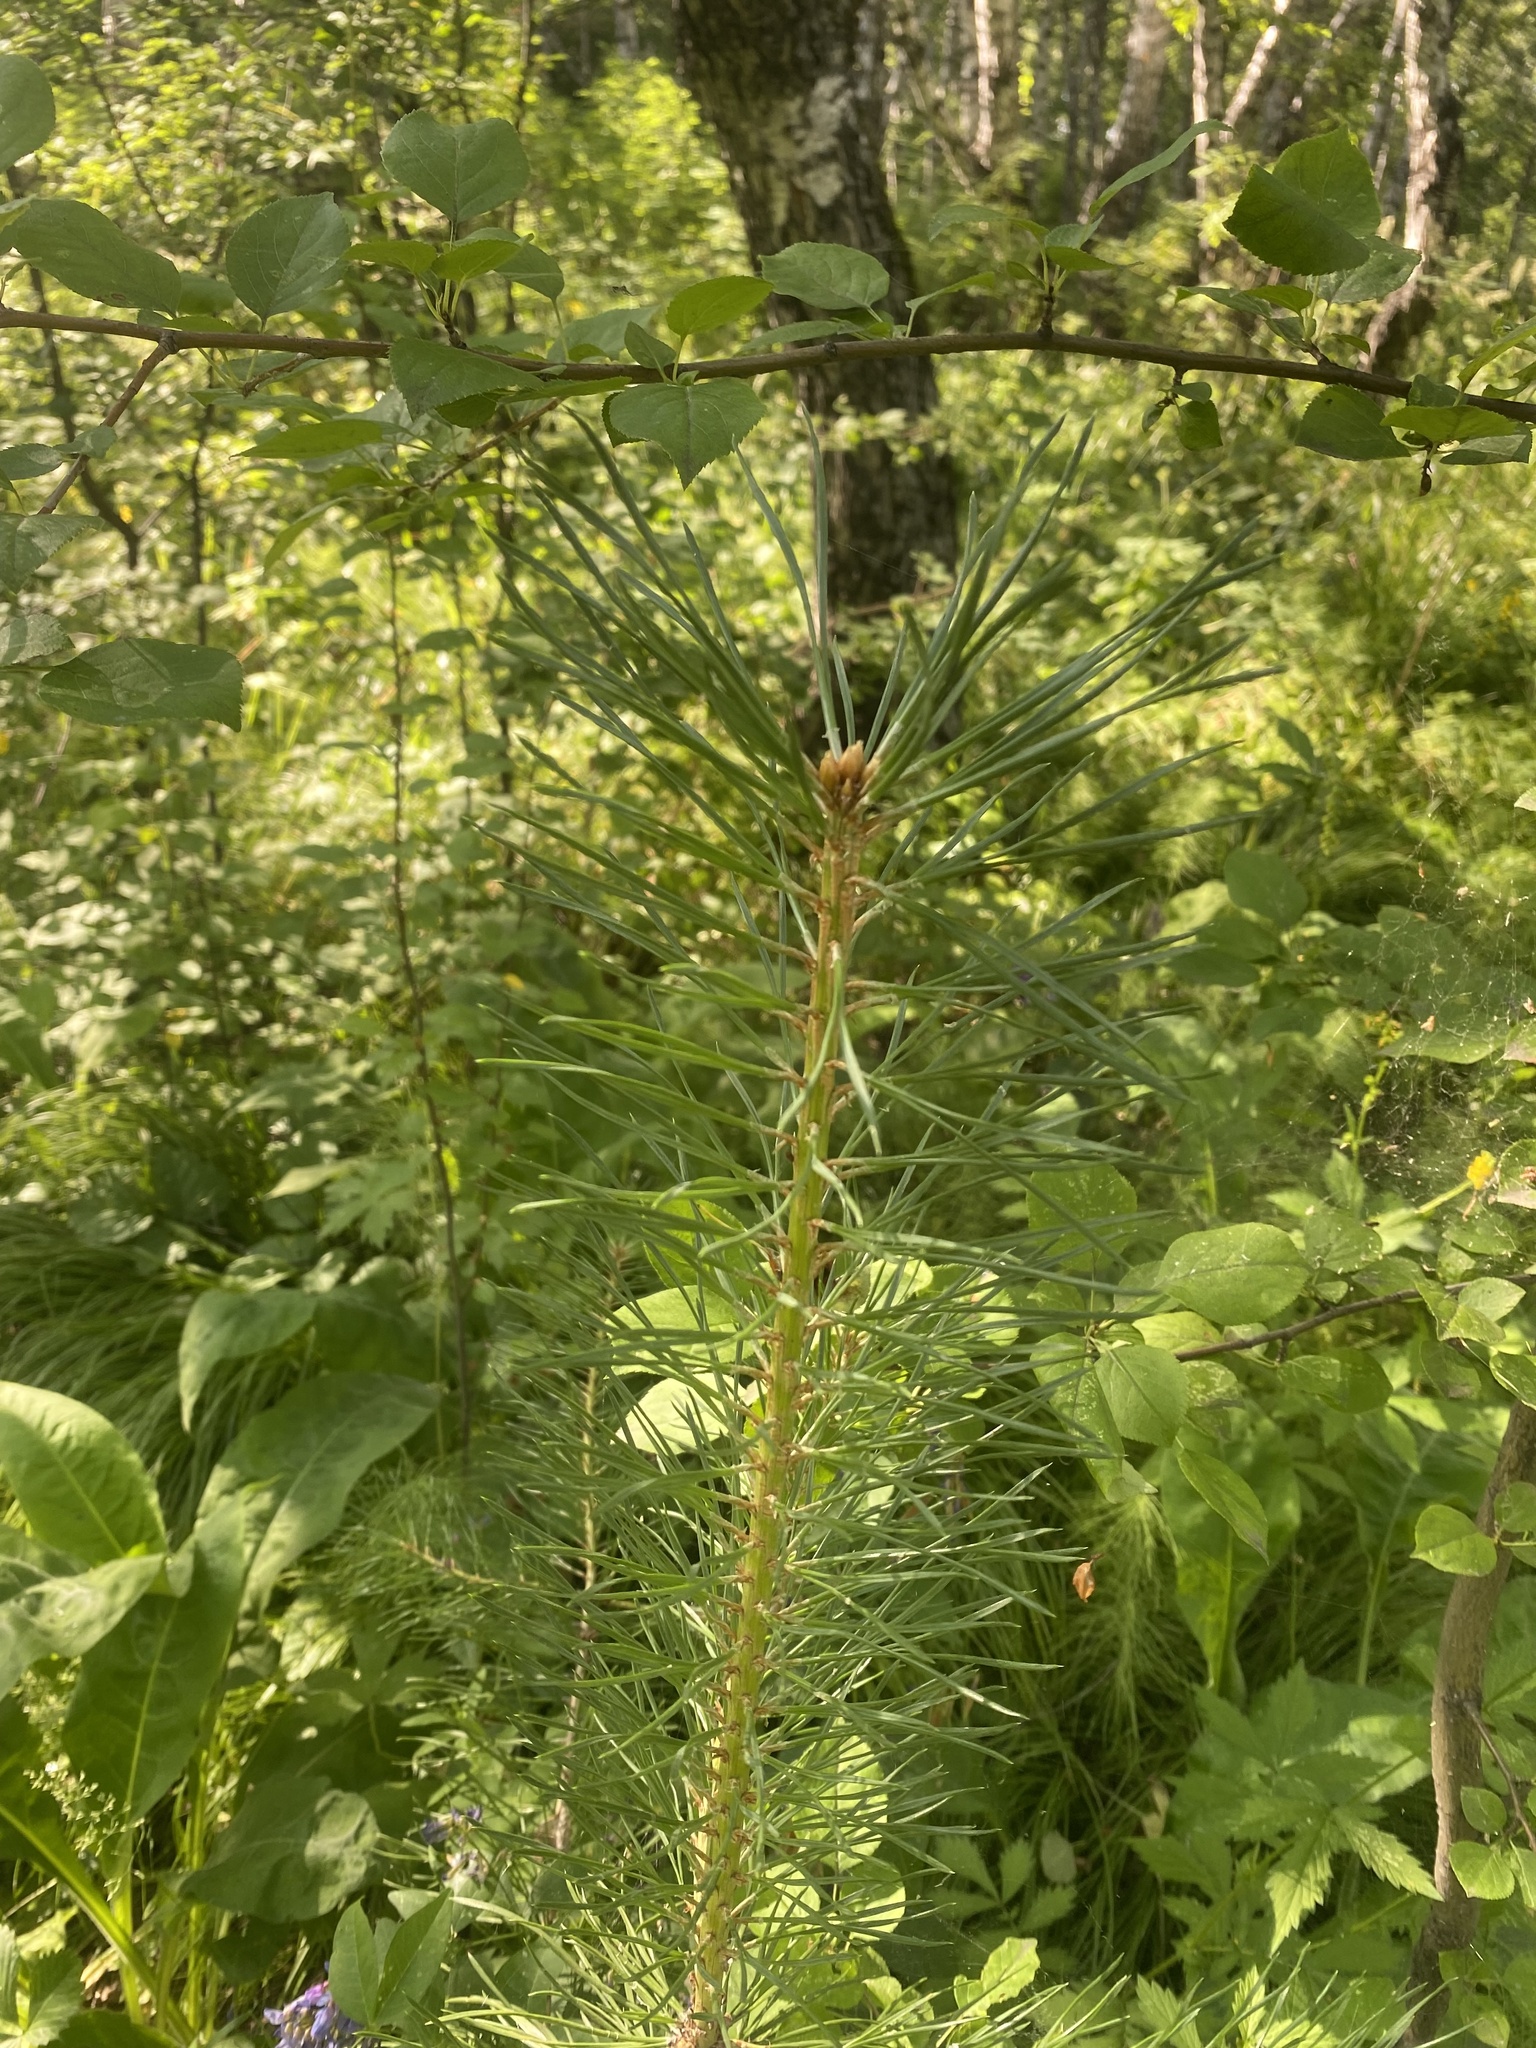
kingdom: Plantae
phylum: Tracheophyta
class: Pinopsida
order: Pinales
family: Pinaceae
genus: Pinus
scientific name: Pinus sylvestris
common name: Scots pine
